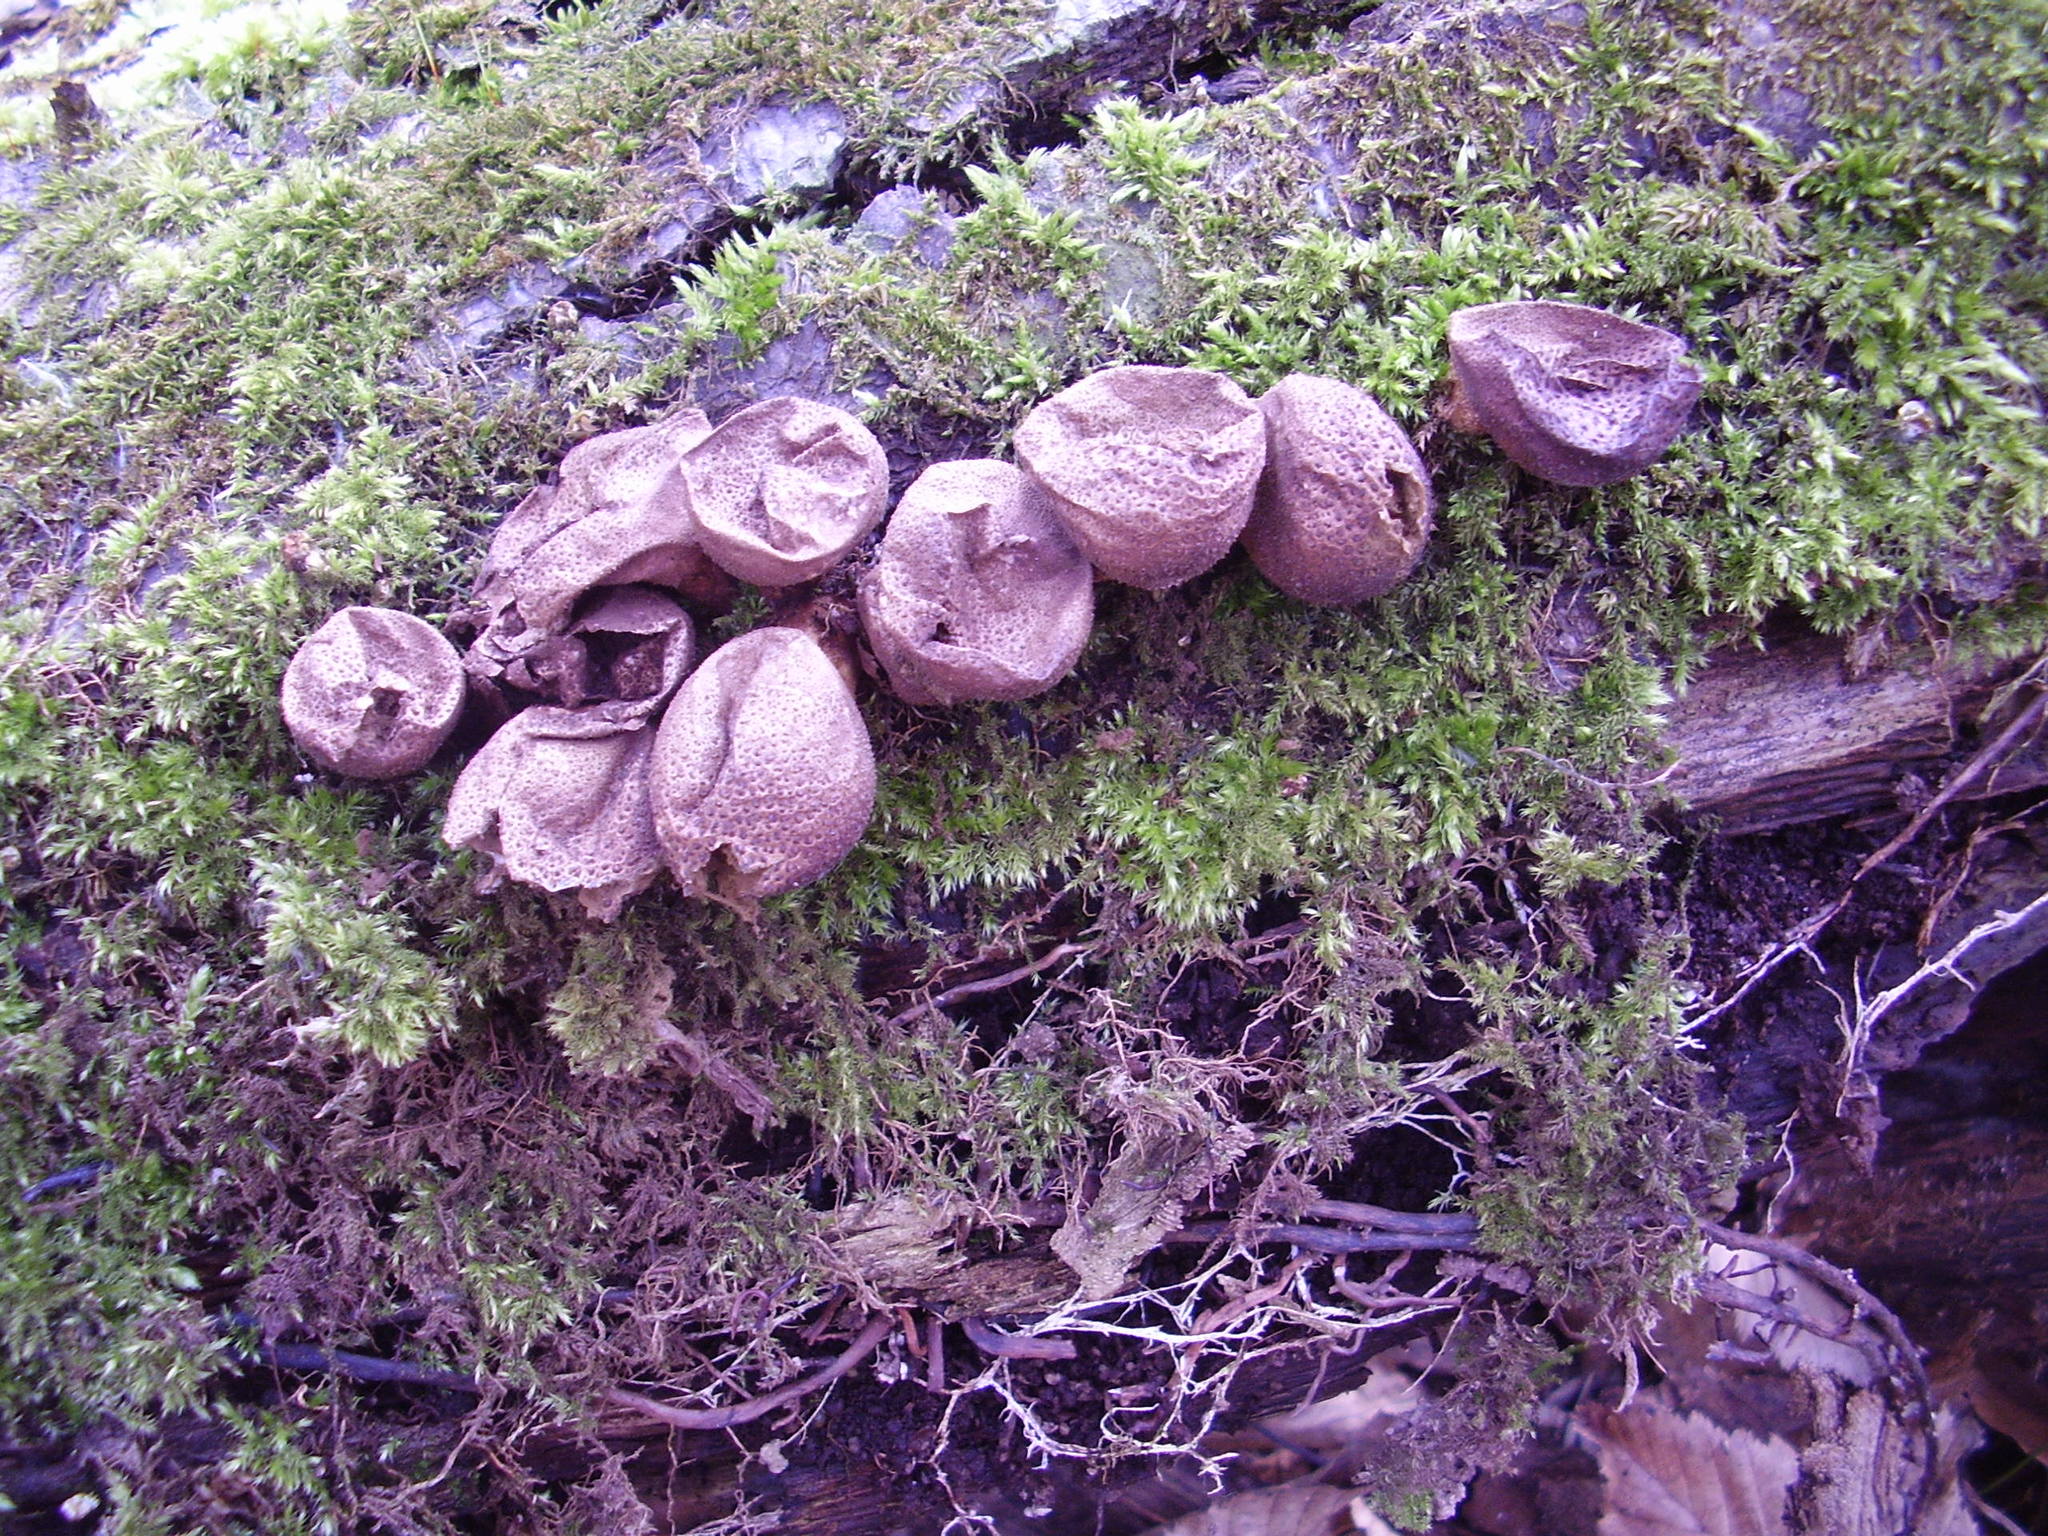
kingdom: Fungi
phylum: Basidiomycota
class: Agaricomycetes
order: Agaricales
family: Lycoperdaceae
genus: Apioperdon
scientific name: Apioperdon pyriforme
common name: Pear-shaped puffball
